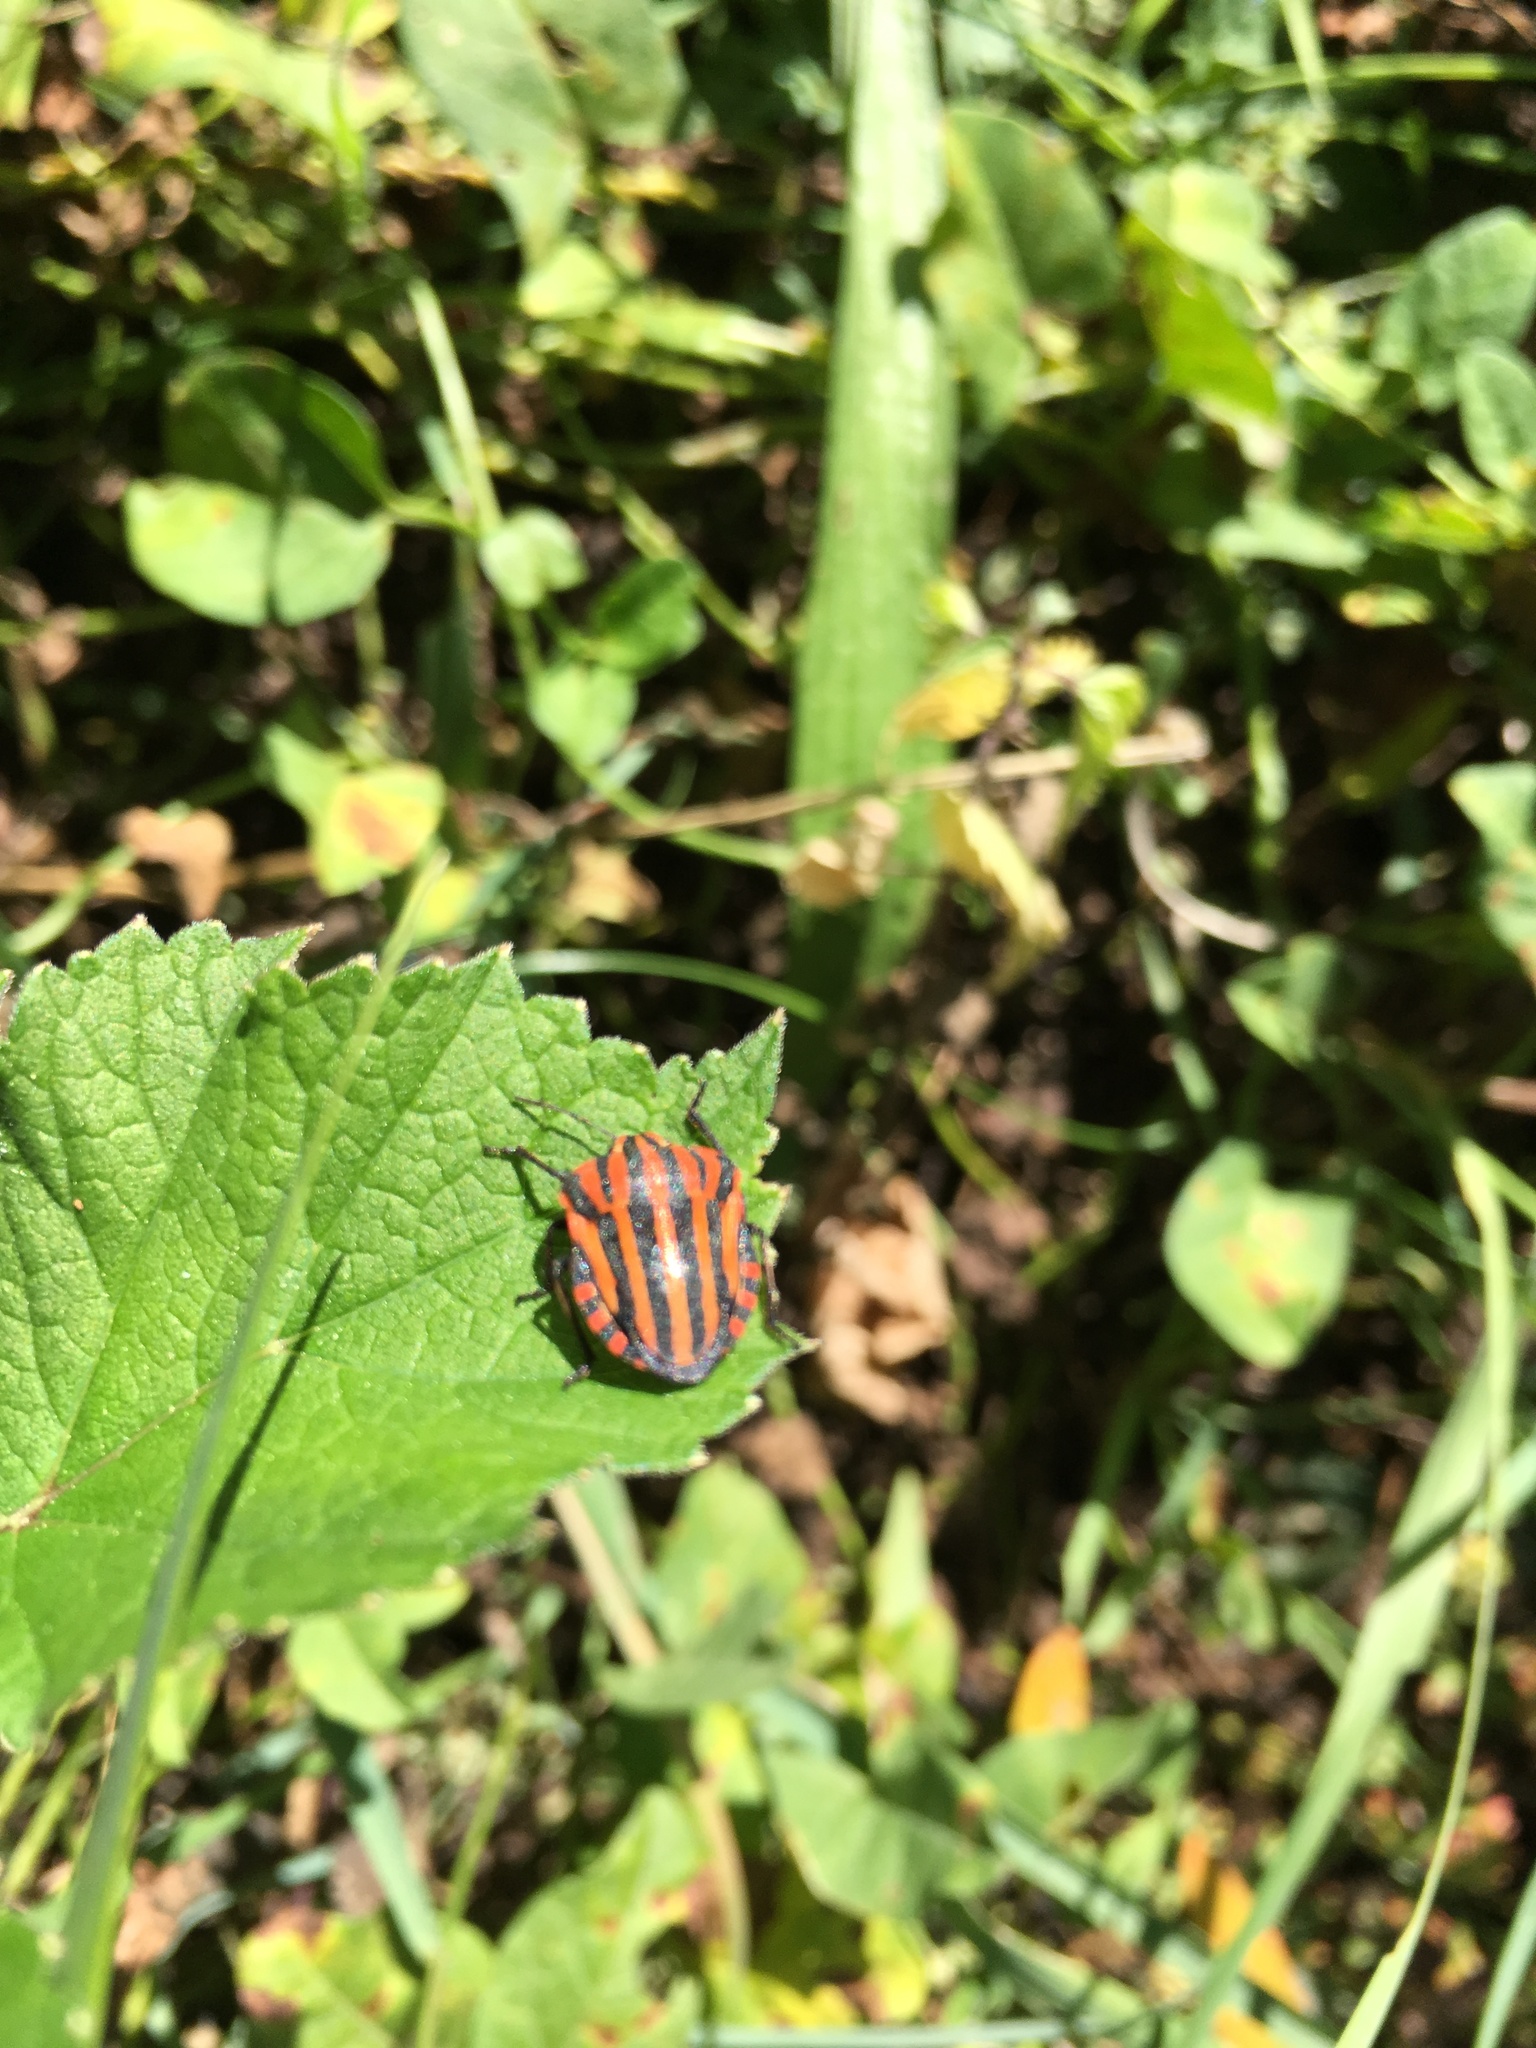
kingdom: Animalia
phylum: Arthropoda
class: Insecta
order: Hemiptera
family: Pentatomidae
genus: Graphosoma
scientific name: Graphosoma italicum
